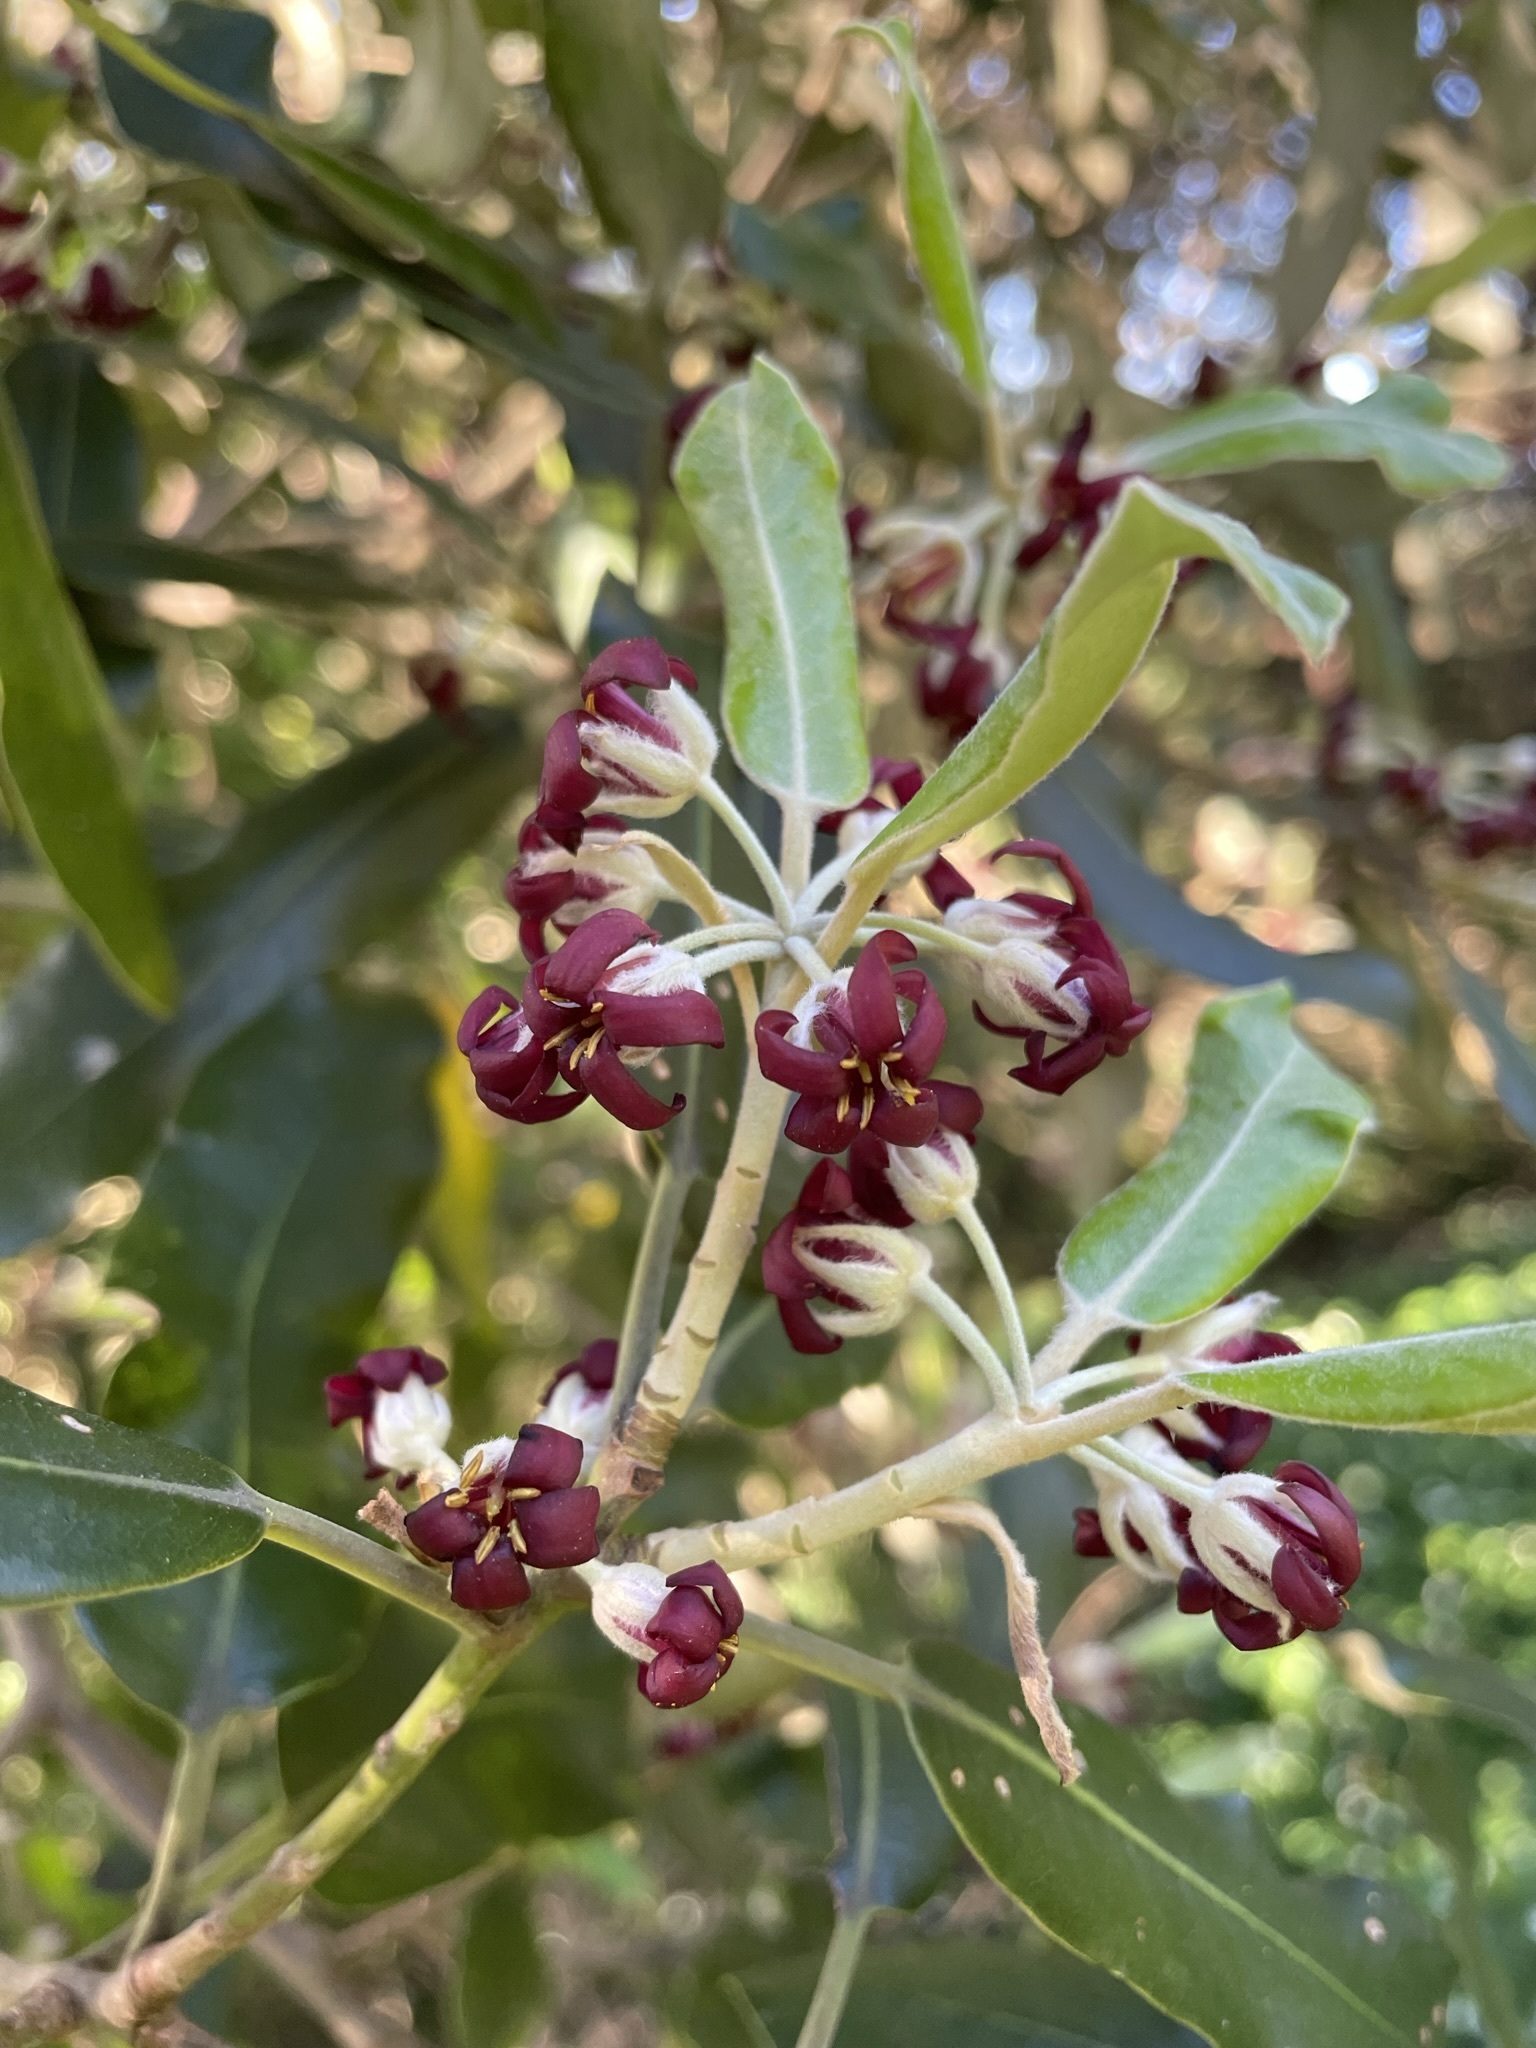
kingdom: Plantae
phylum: Tracheophyta
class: Magnoliopsida
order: Apiales
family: Pittosporaceae
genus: Pittosporum
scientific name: Pittosporum ralphii
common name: Ralph's desertwillow
